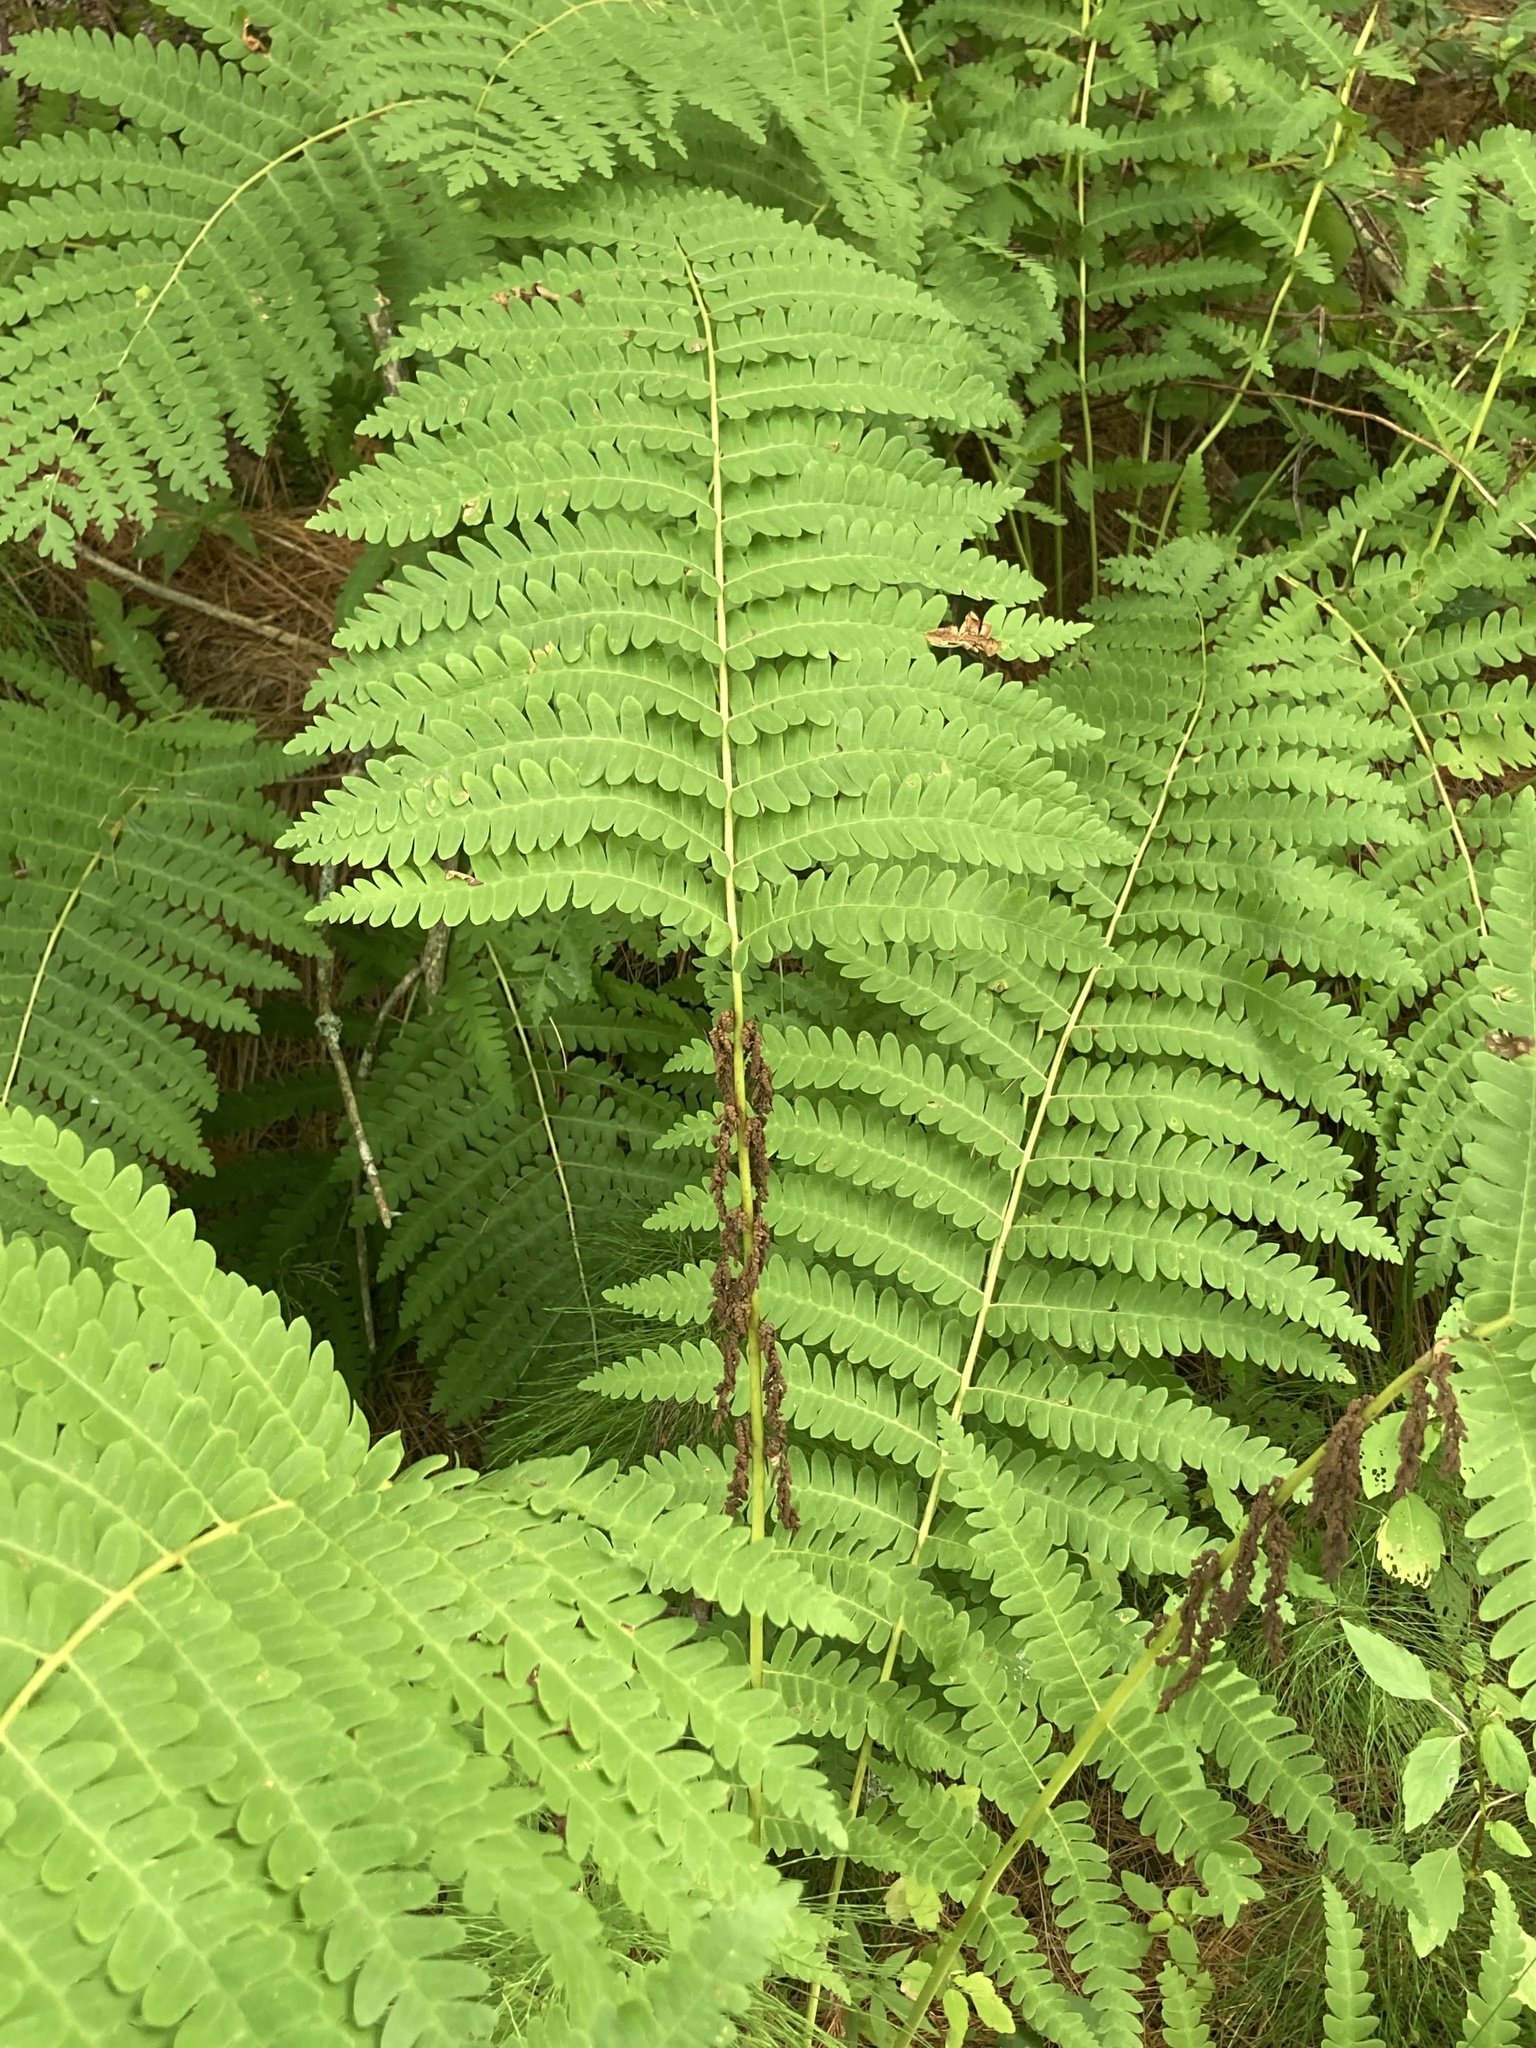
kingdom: Plantae
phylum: Tracheophyta
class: Polypodiopsida
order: Osmundales
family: Osmundaceae
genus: Claytosmunda
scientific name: Claytosmunda claytoniana
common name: Clayton's fern
